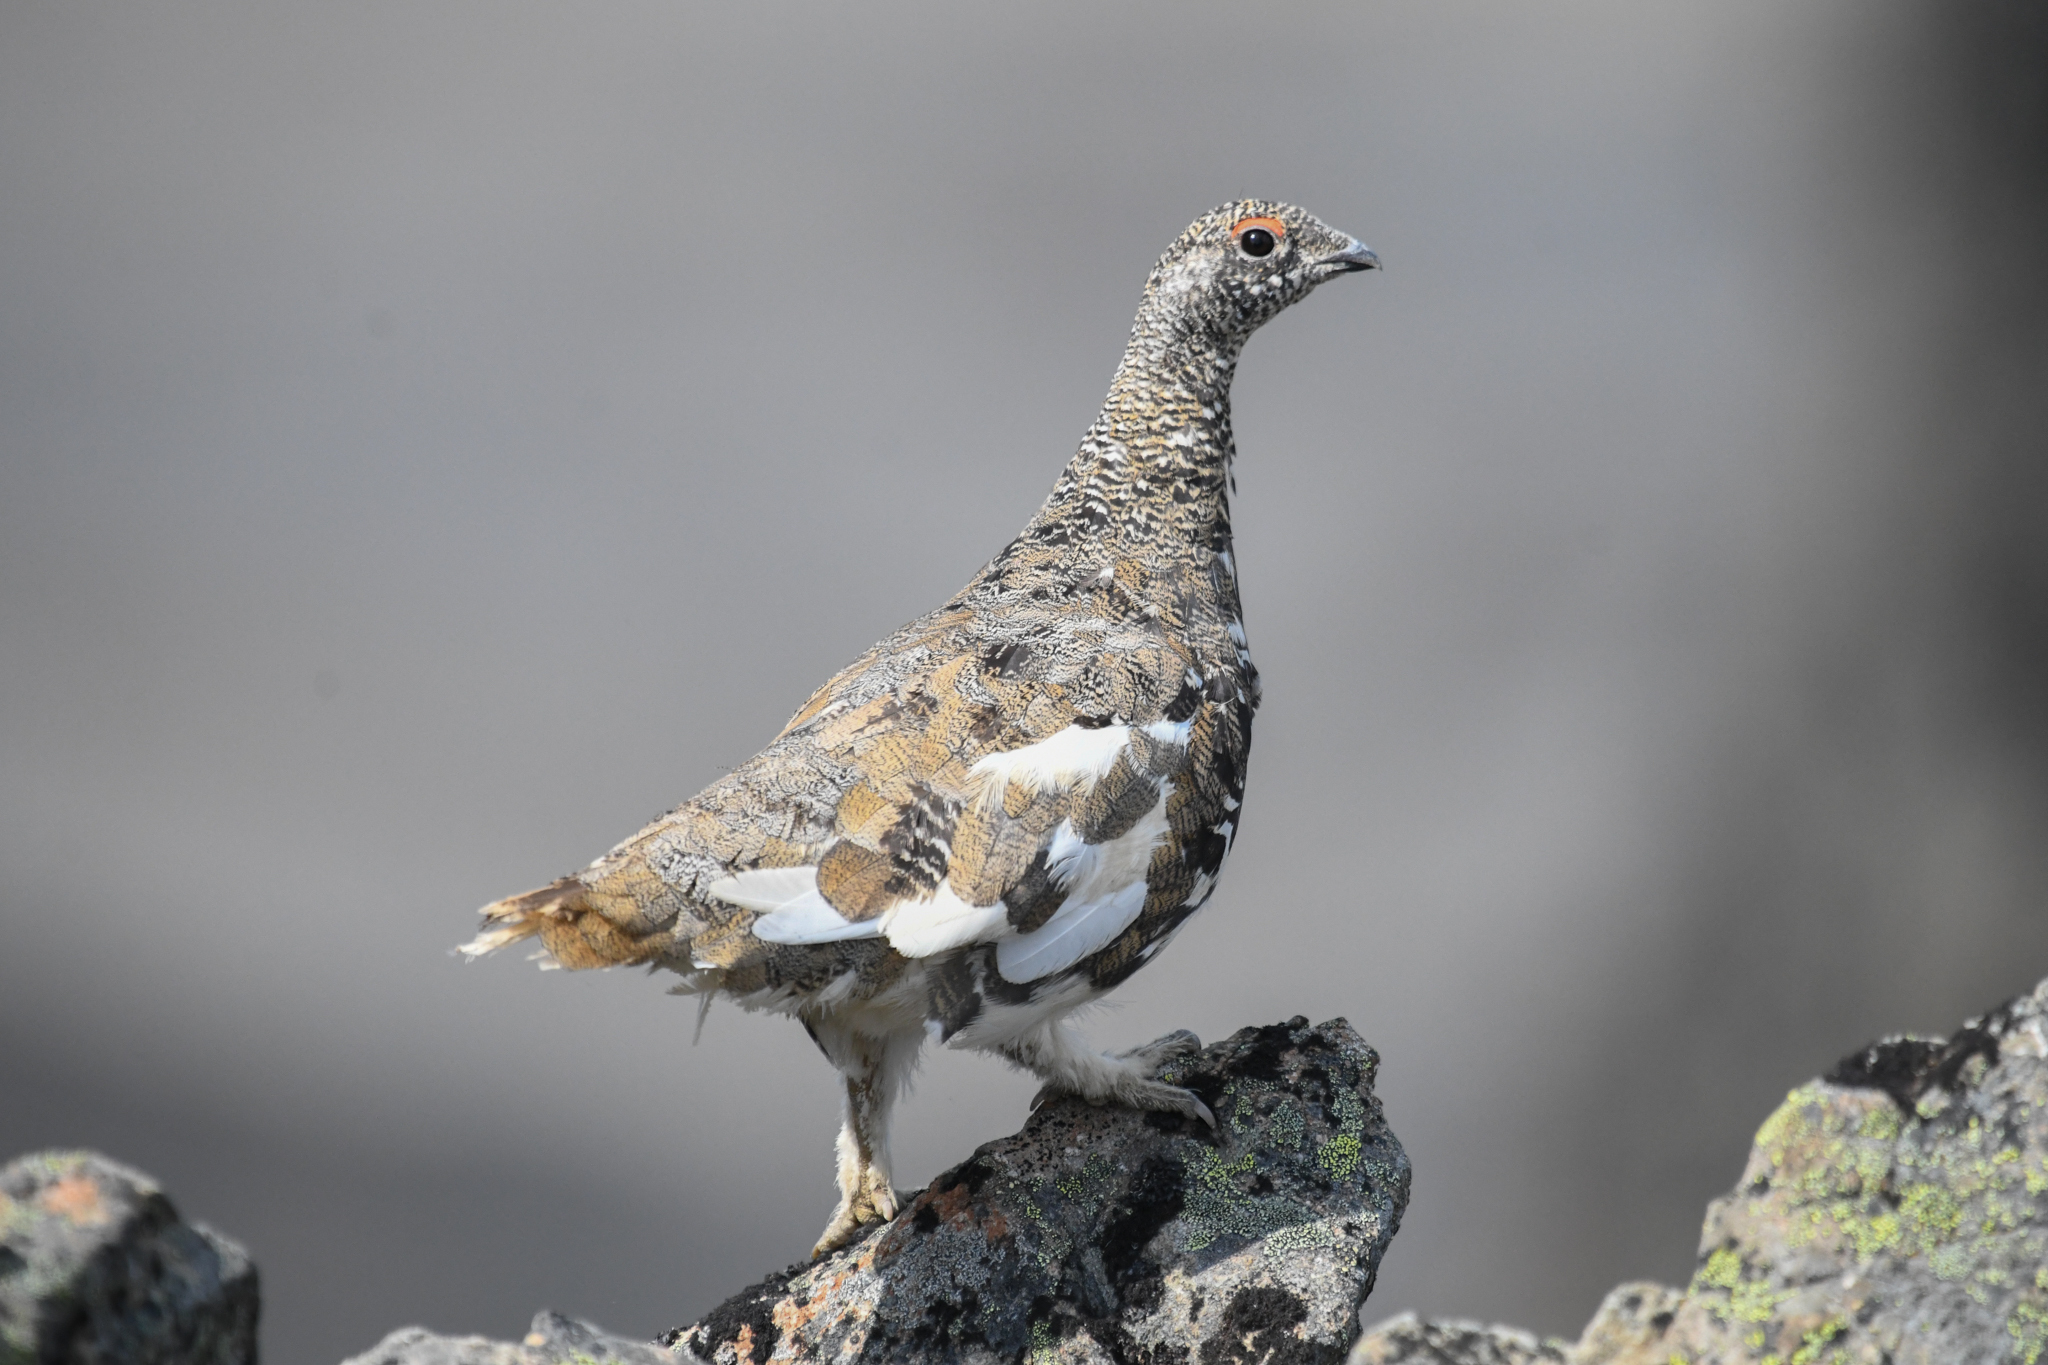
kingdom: Animalia
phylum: Chordata
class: Aves
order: Galliformes
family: Phasianidae
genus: Lagopus
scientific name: Lagopus leucura
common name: White-tailed ptarmigan
